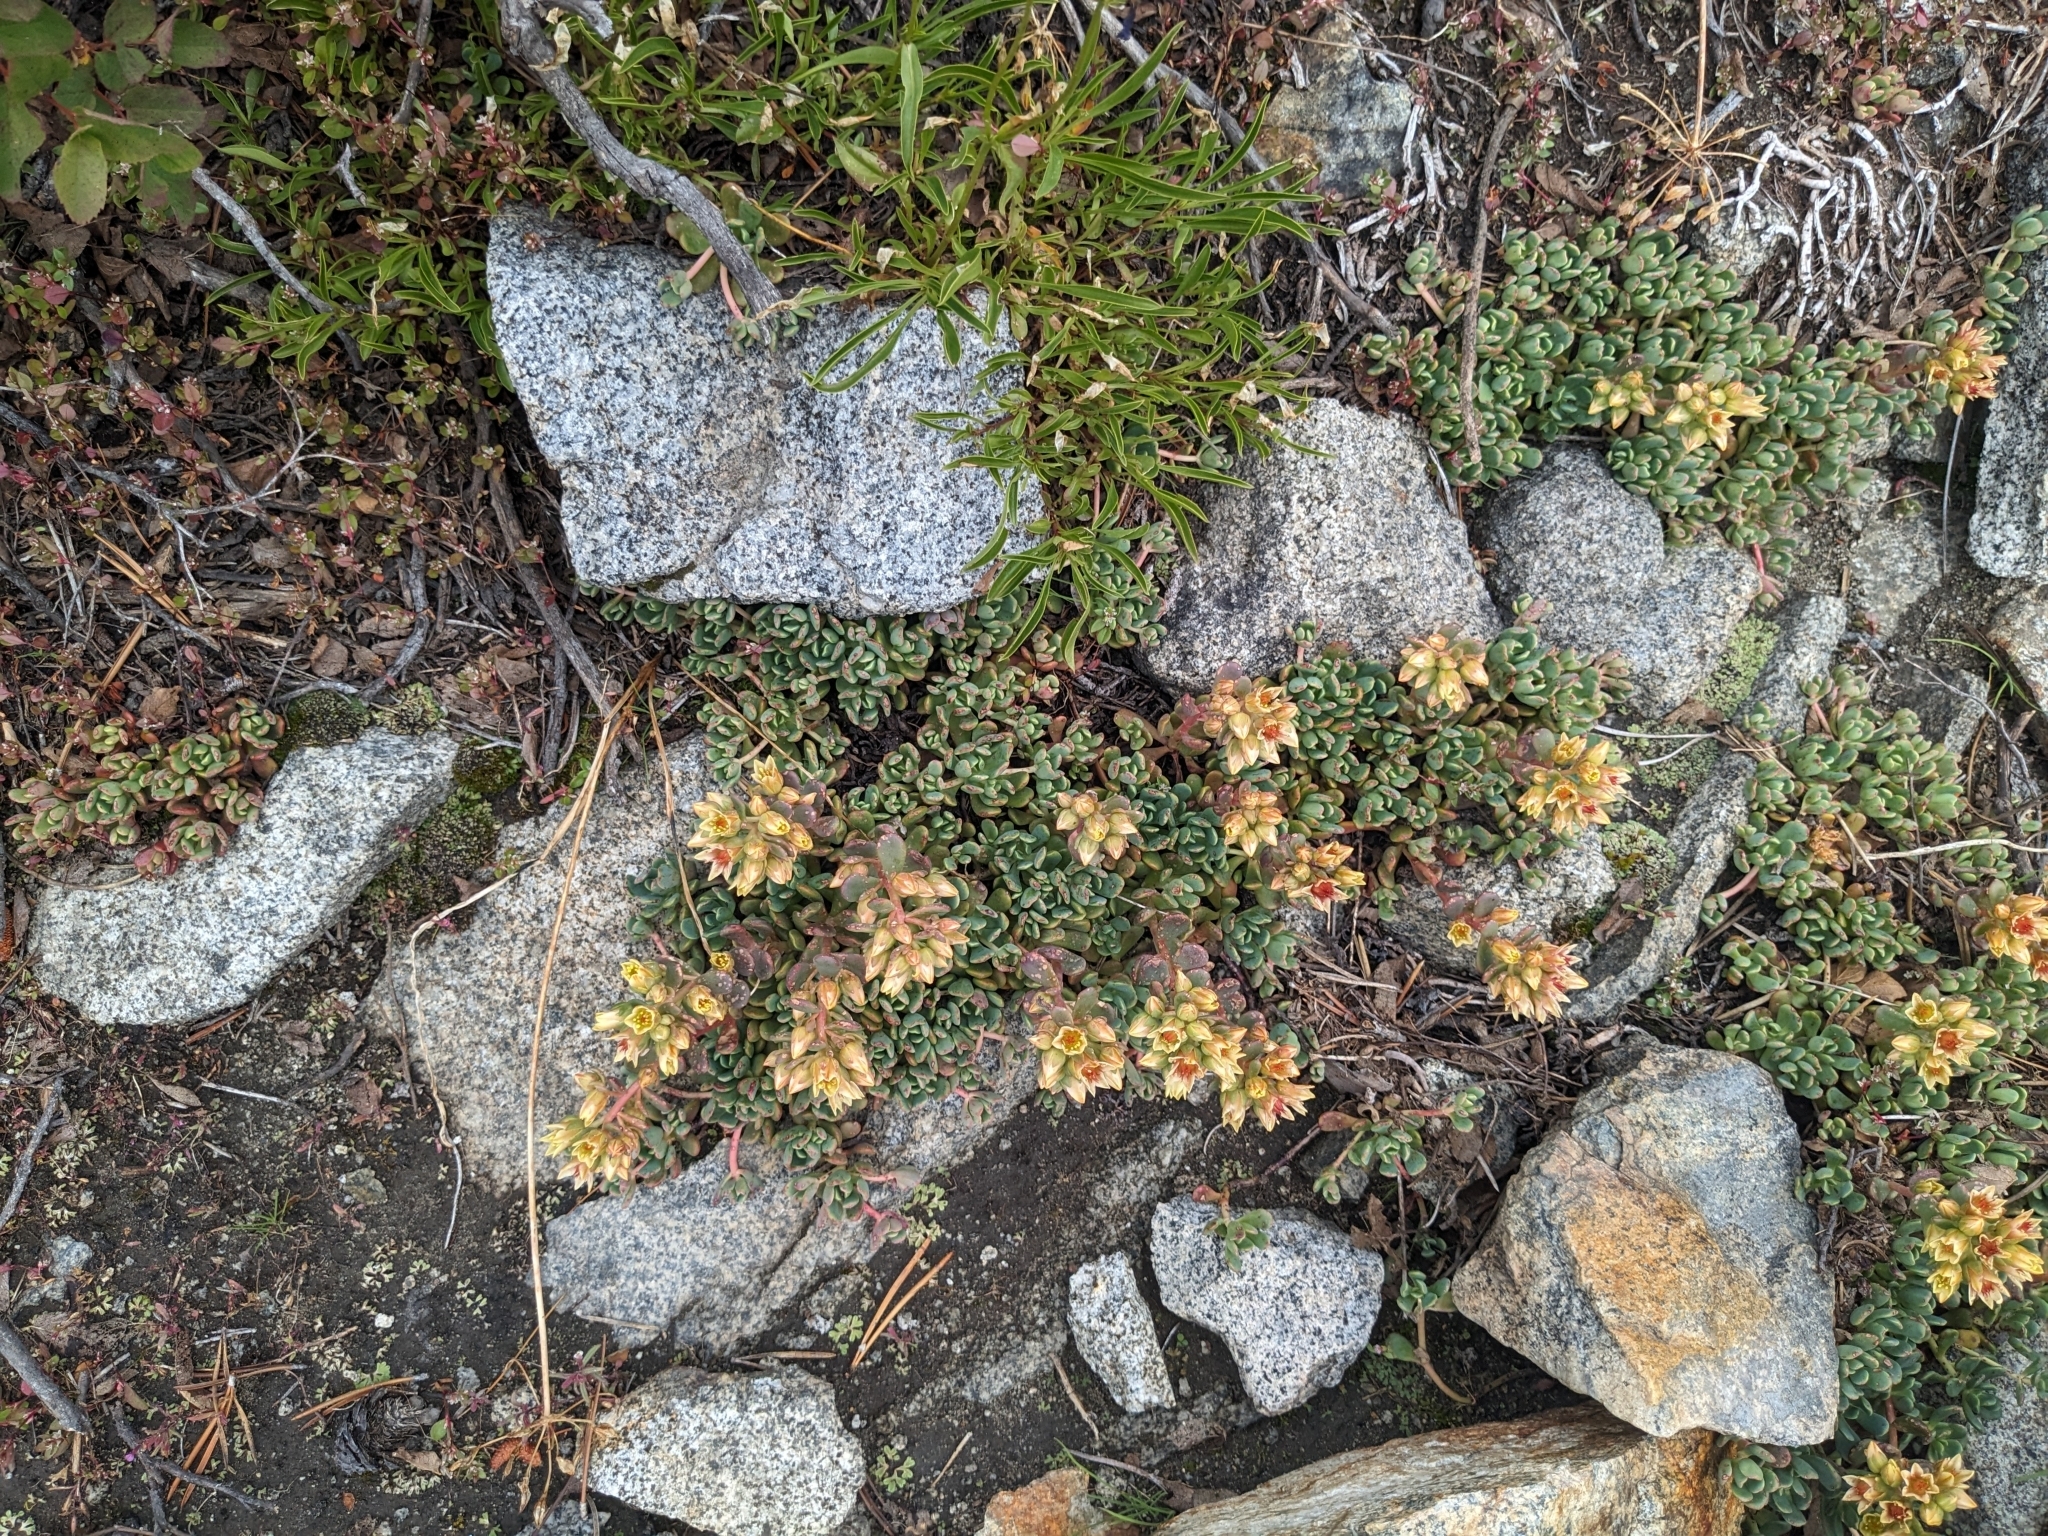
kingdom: Plantae
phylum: Tracheophyta
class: Magnoliopsida
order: Saxifragales
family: Crassulaceae
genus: Sedum
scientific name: Sedum obtusatum
